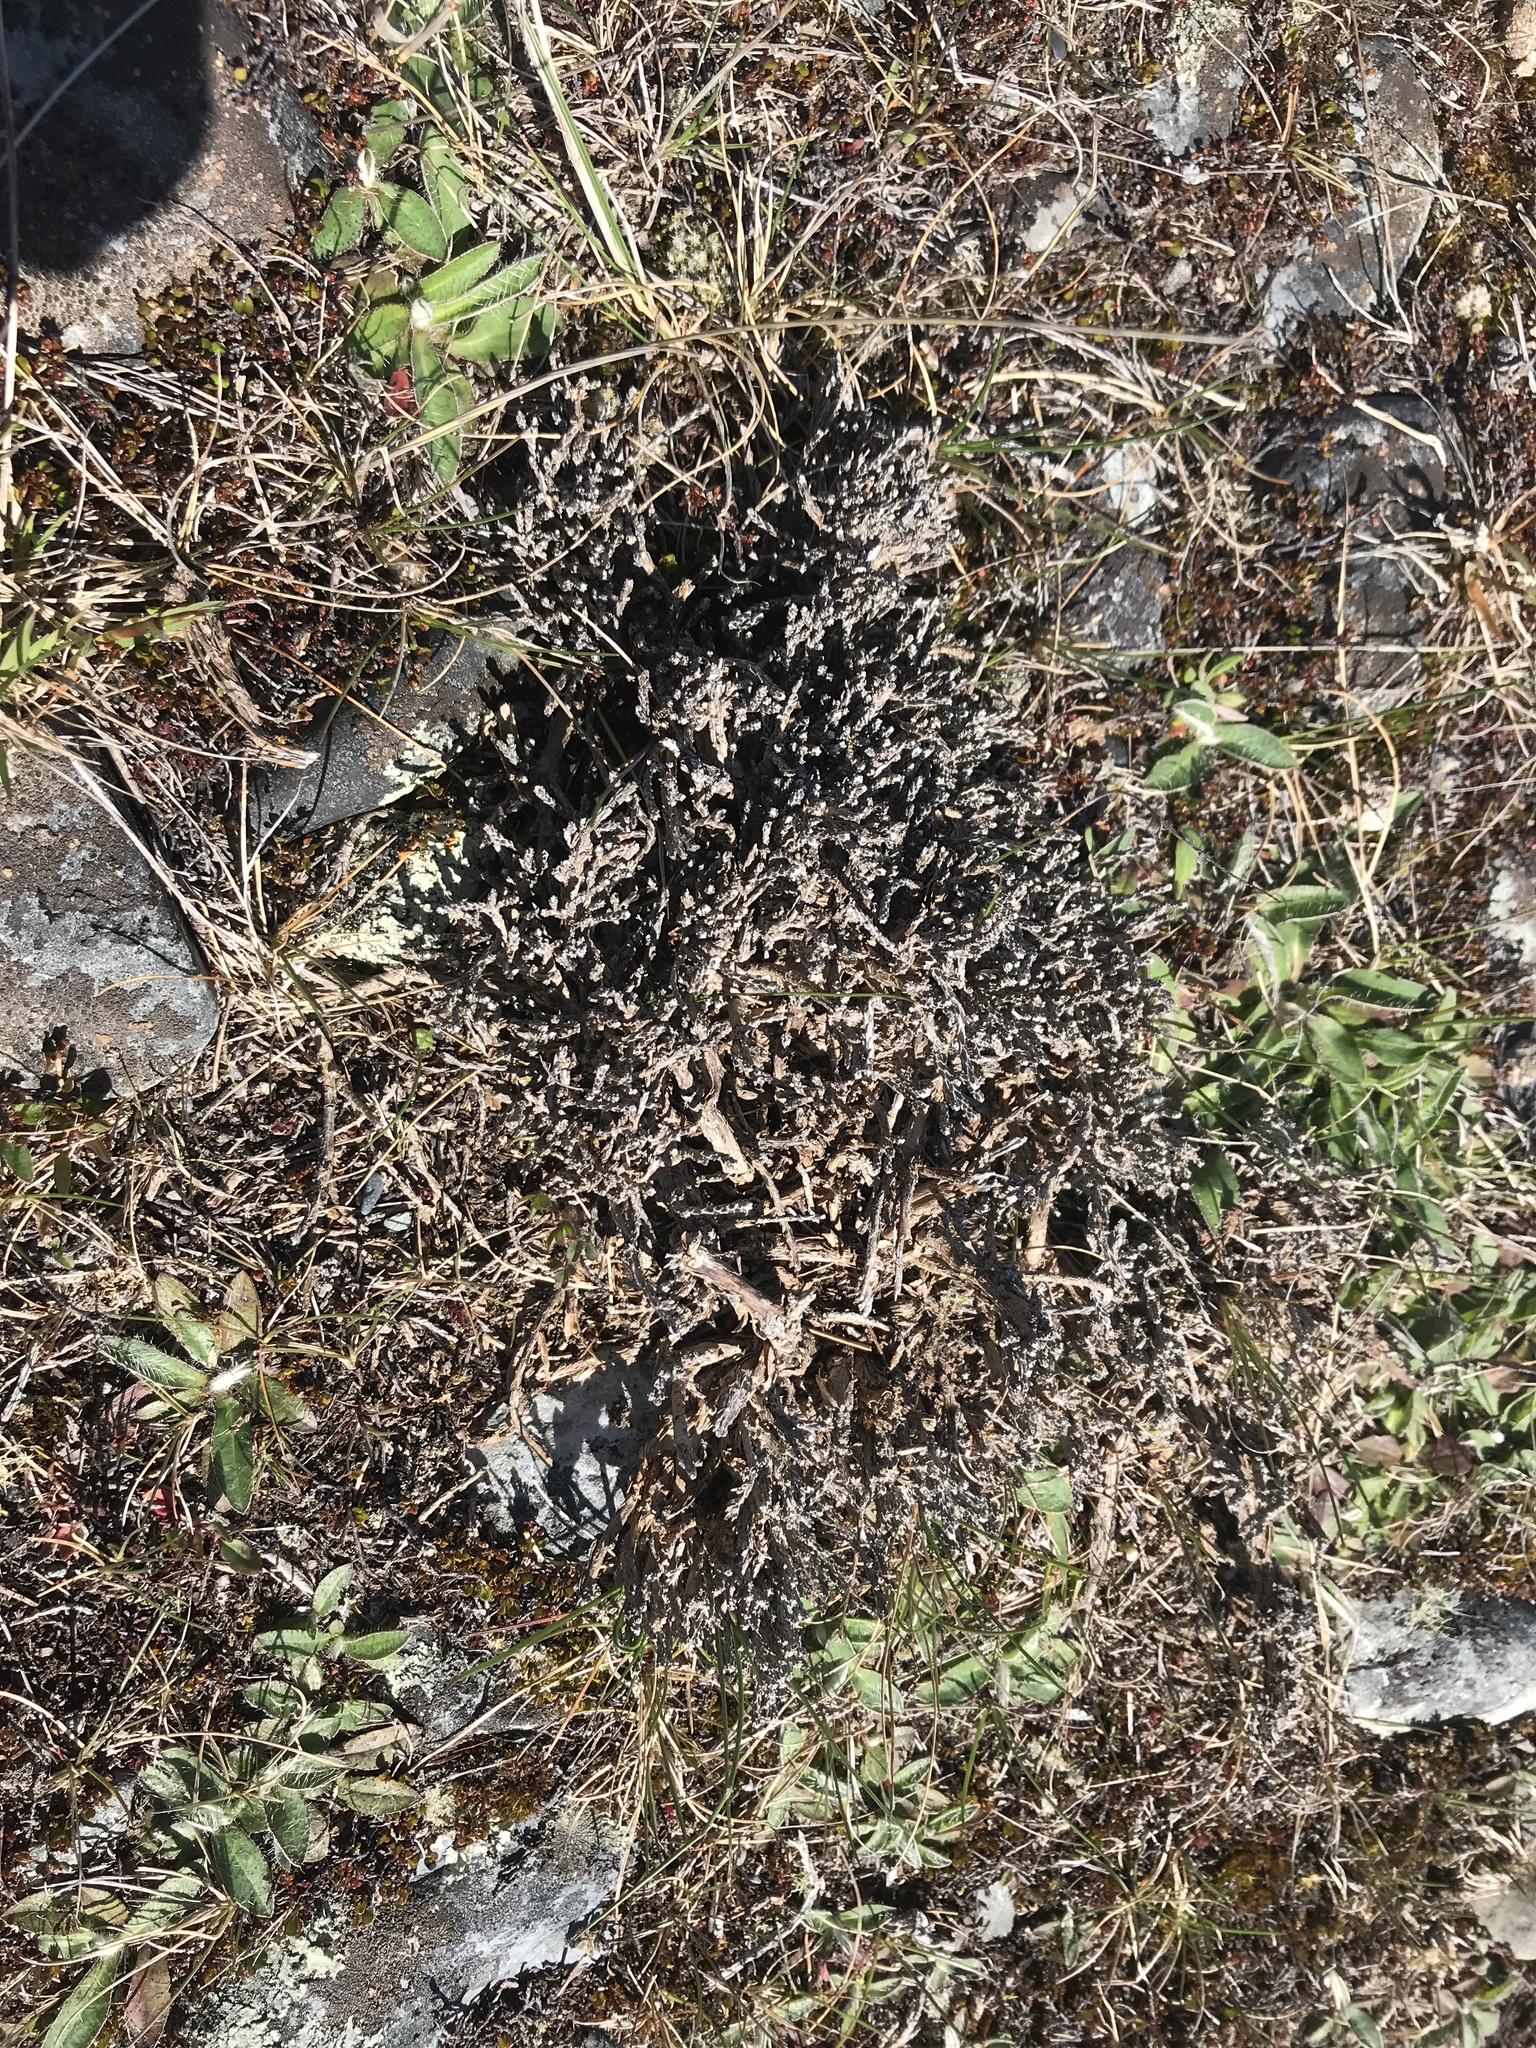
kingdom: Plantae
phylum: Tracheophyta
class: Magnoliopsida
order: Asterales
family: Asteraceae
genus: Ozothamnus
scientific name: Ozothamnus depressus
